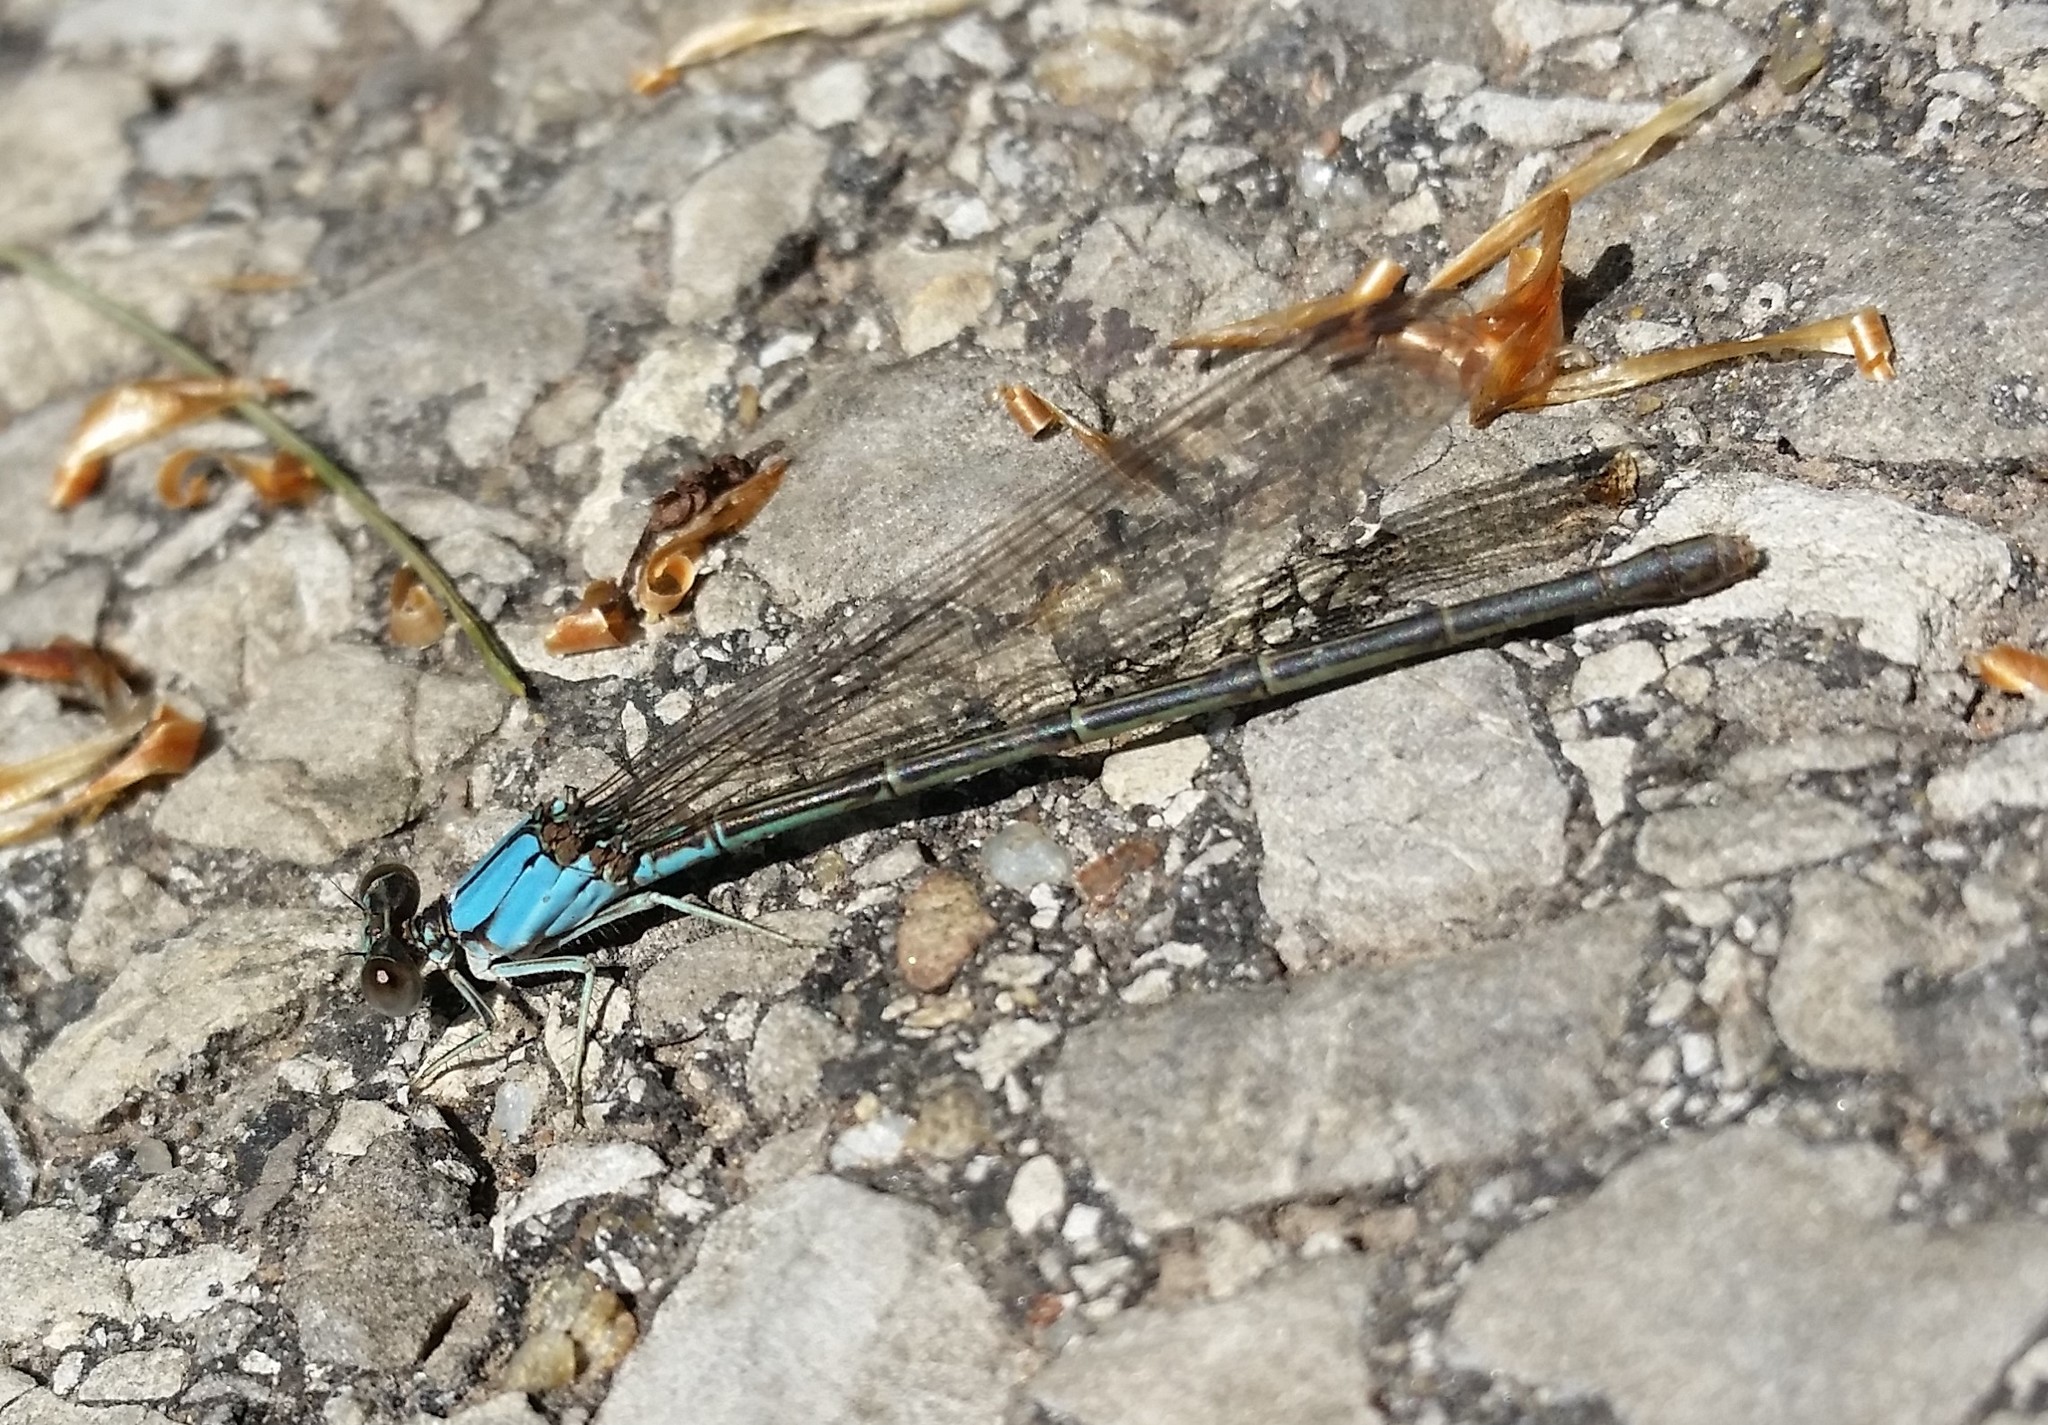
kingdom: Animalia
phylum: Arthropoda
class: Insecta
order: Odonata
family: Coenagrionidae
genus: Argia
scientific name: Argia apicalis
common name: Blue-fronted dancer
